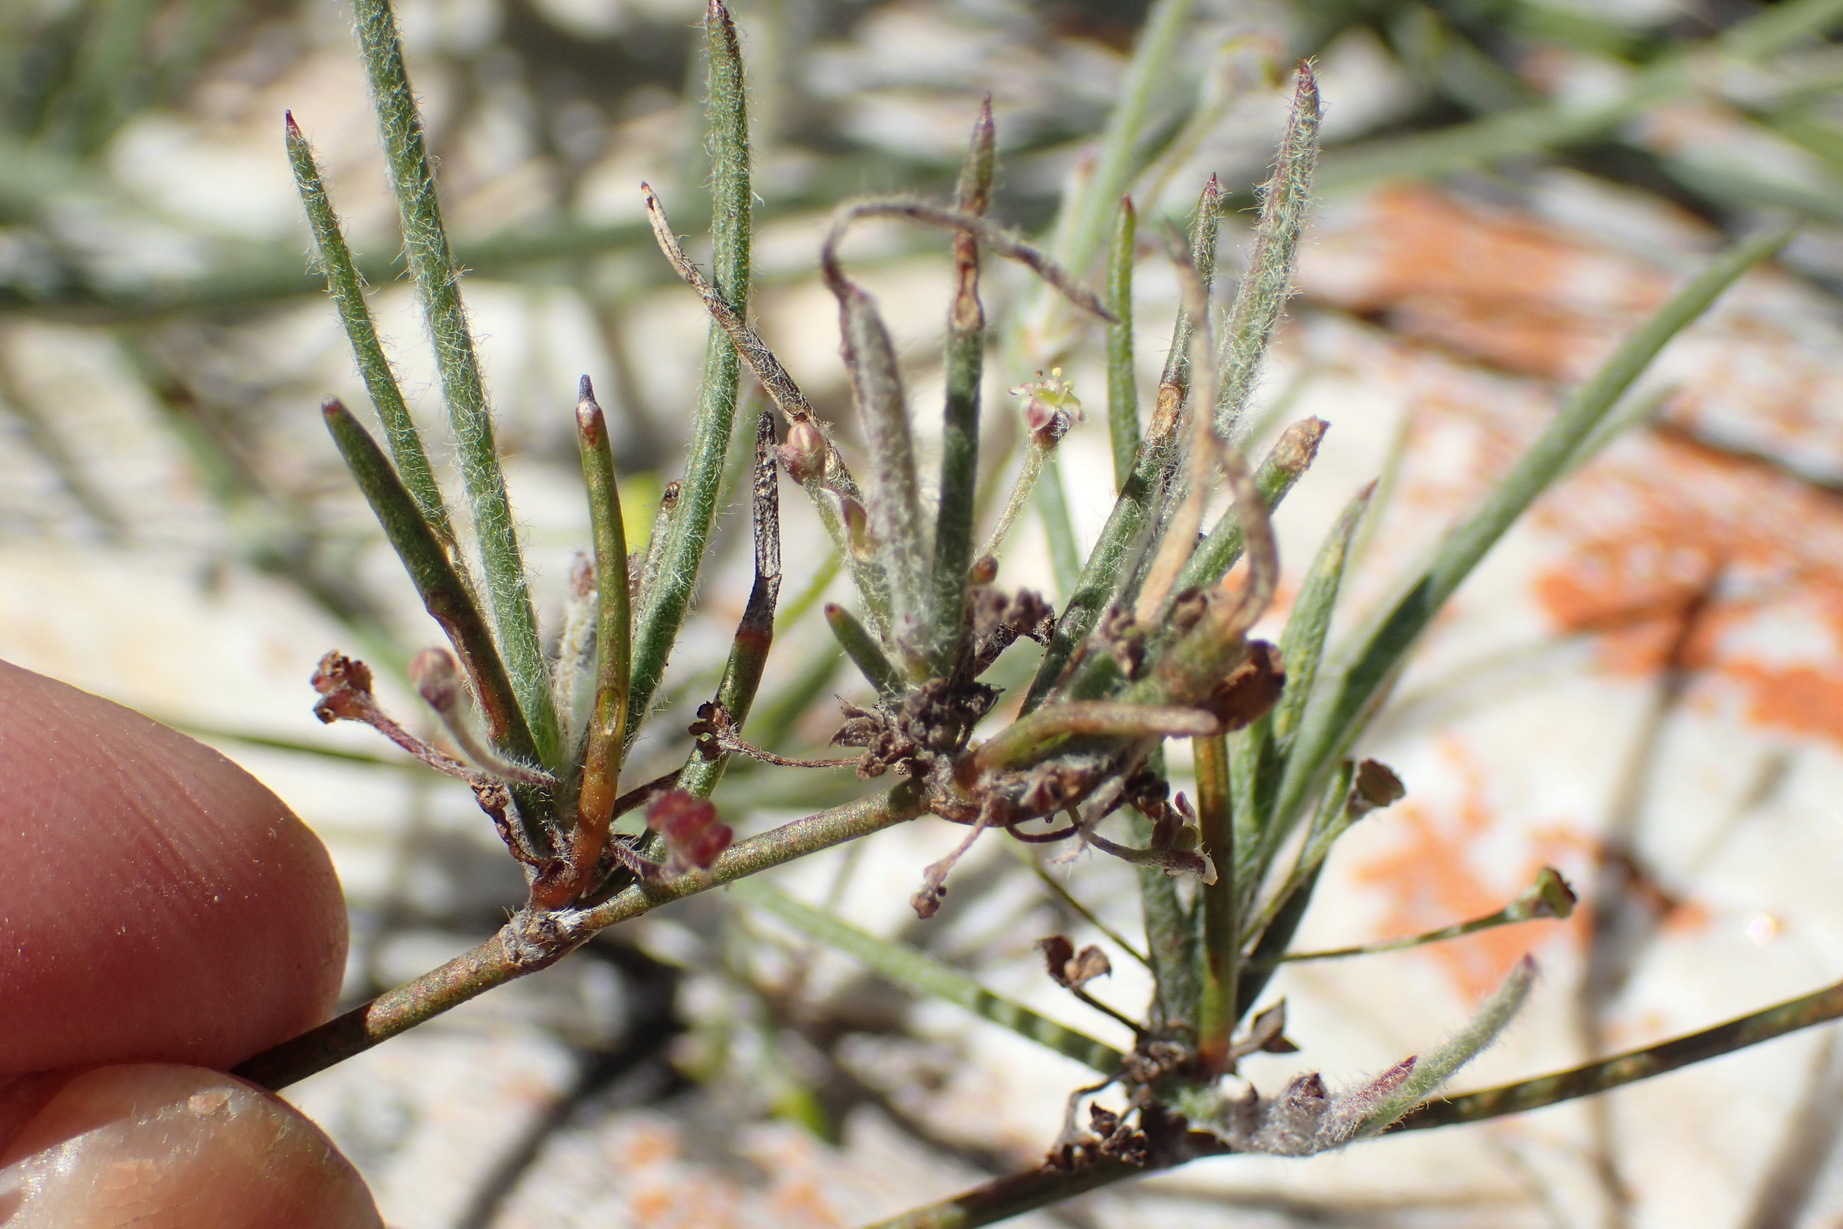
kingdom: Plantae
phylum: Tracheophyta
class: Magnoliopsida
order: Apiales
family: Apiaceae
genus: Centella
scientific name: Centella virgata
